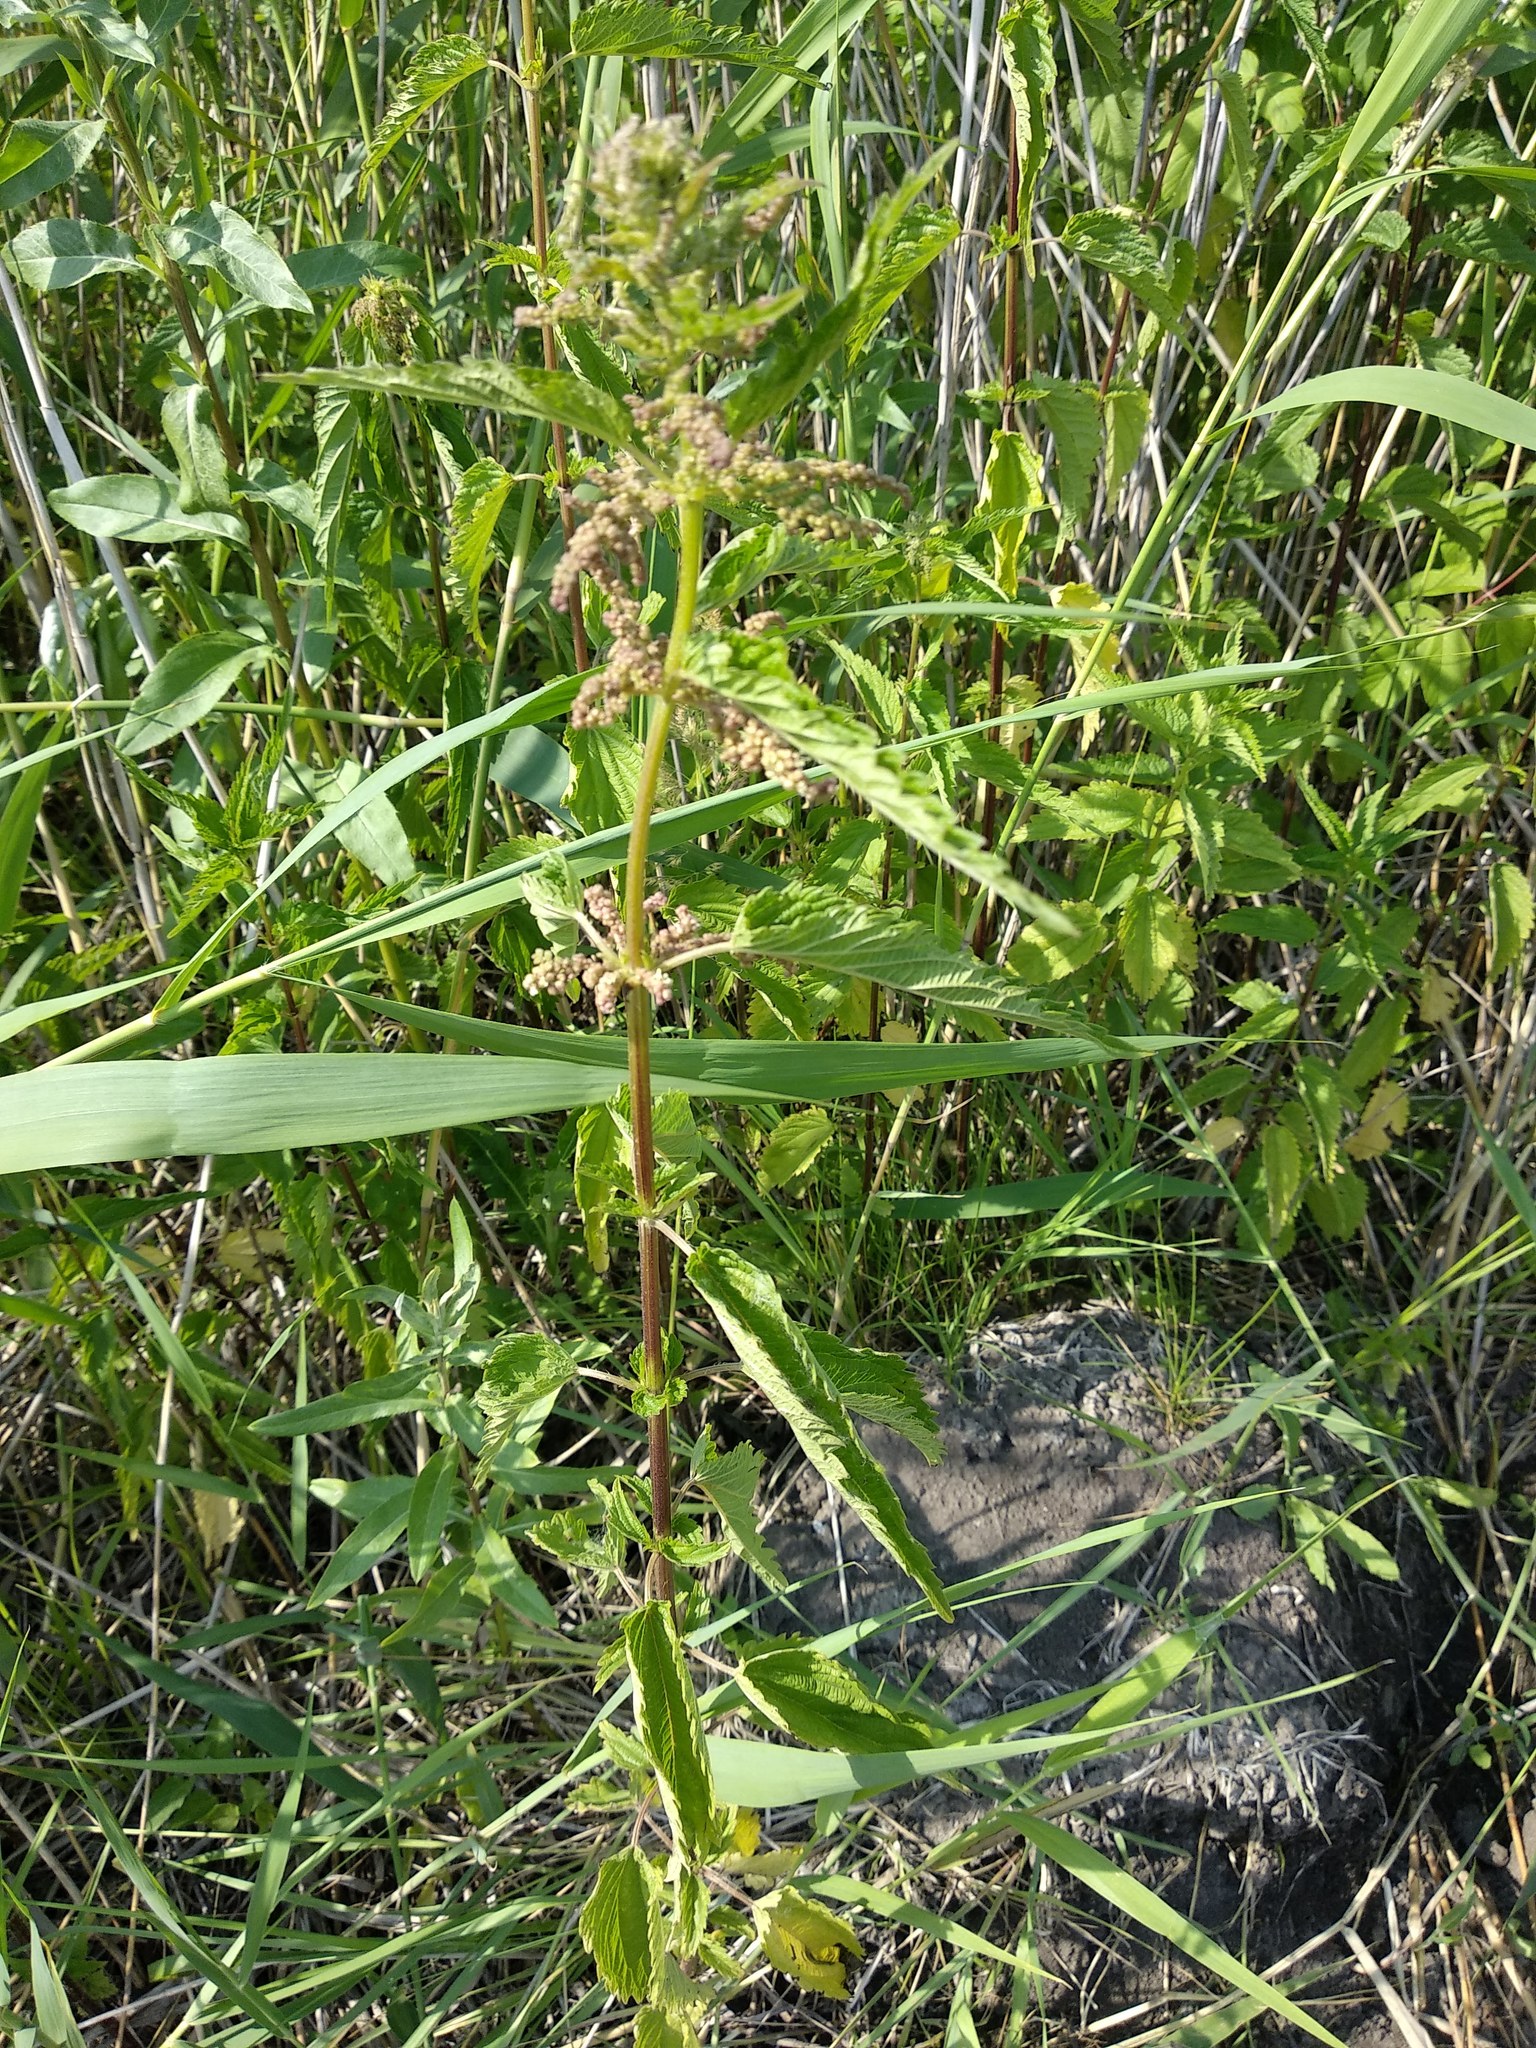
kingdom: Plantae
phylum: Tracheophyta
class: Magnoliopsida
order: Rosales
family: Urticaceae
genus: Urtica
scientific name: Urtica dioica
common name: Common nettle
